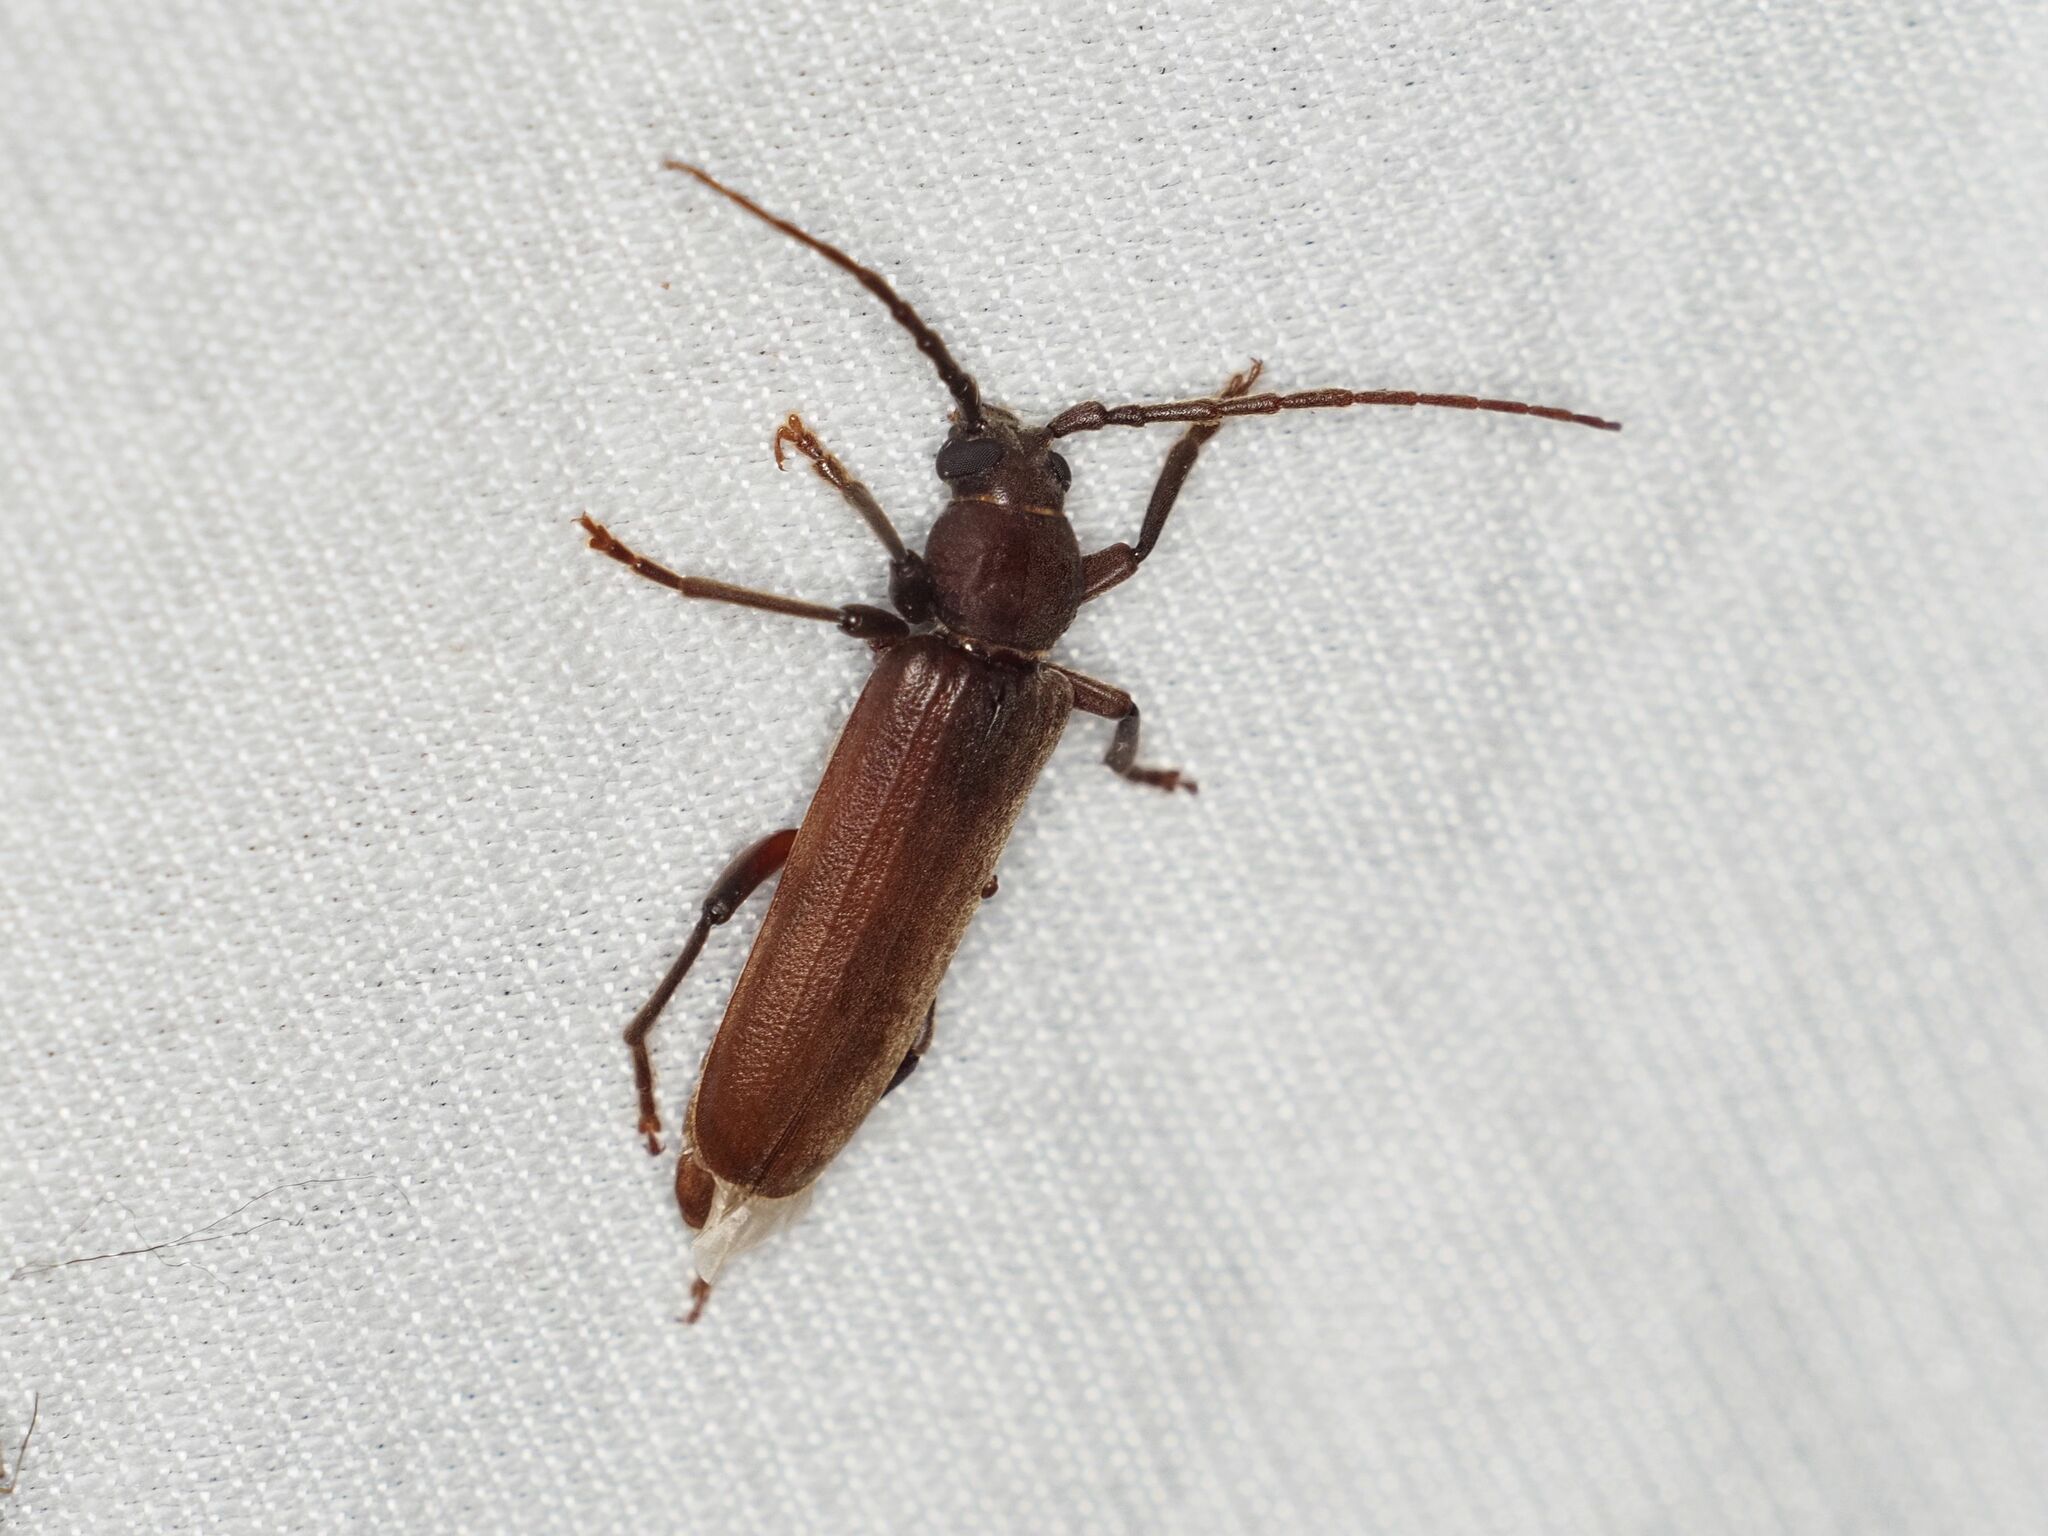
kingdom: Animalia
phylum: Arthropoda
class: Insecta
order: Coleoptera
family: Cerambycidae
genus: Arhopalus
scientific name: Arhopalus rusticus
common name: Rust pine borer
